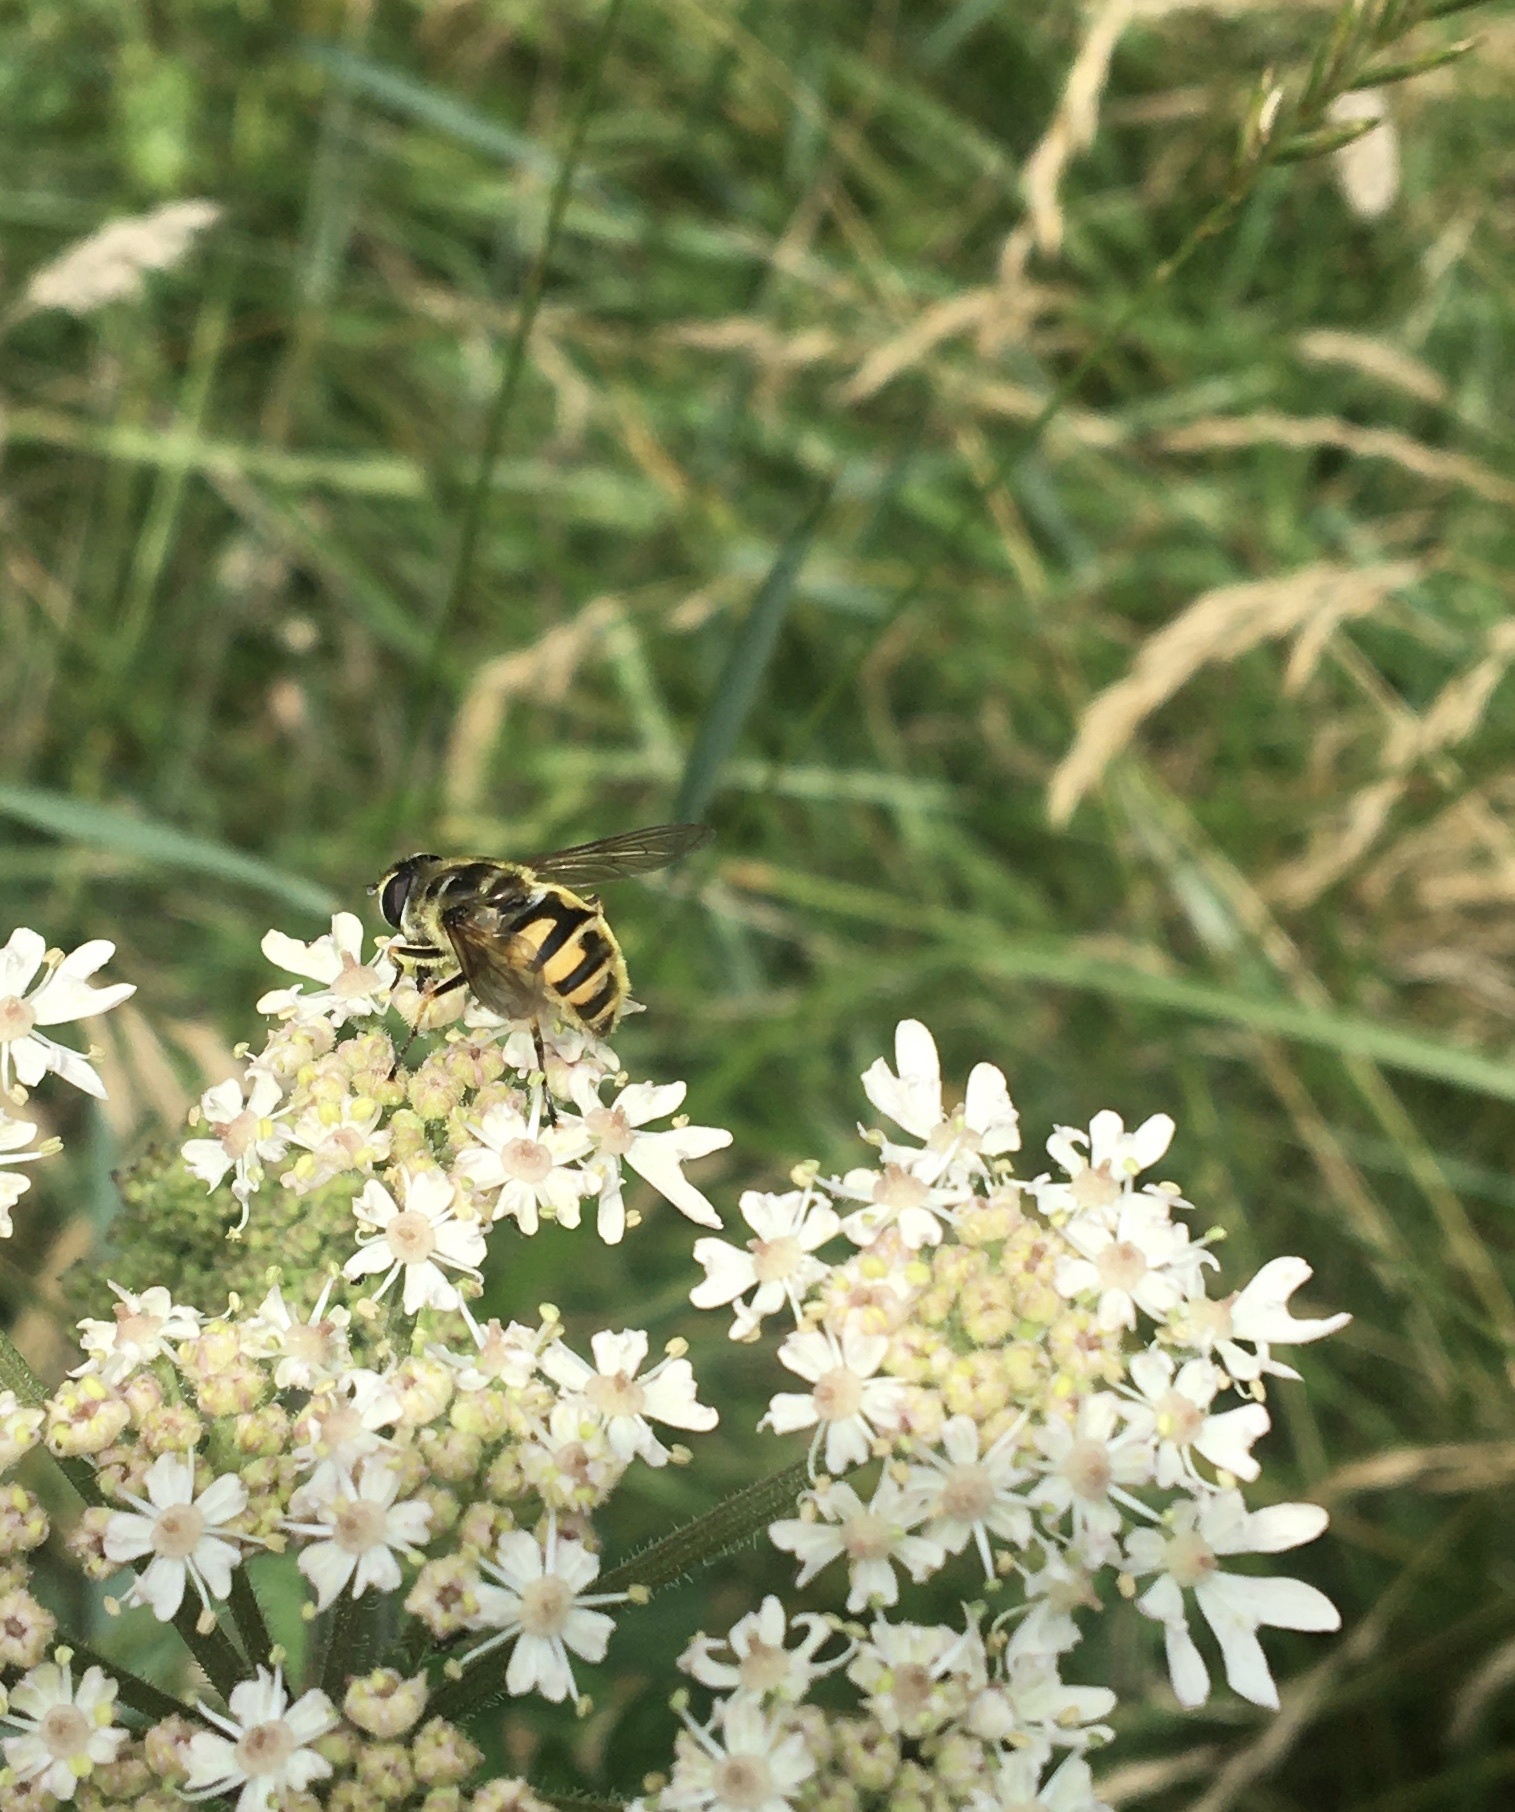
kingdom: Animalia
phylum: Arthropoda
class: Insecta
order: Diptera
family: Syrphidae
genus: Myathropa
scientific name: Myathropa florea
